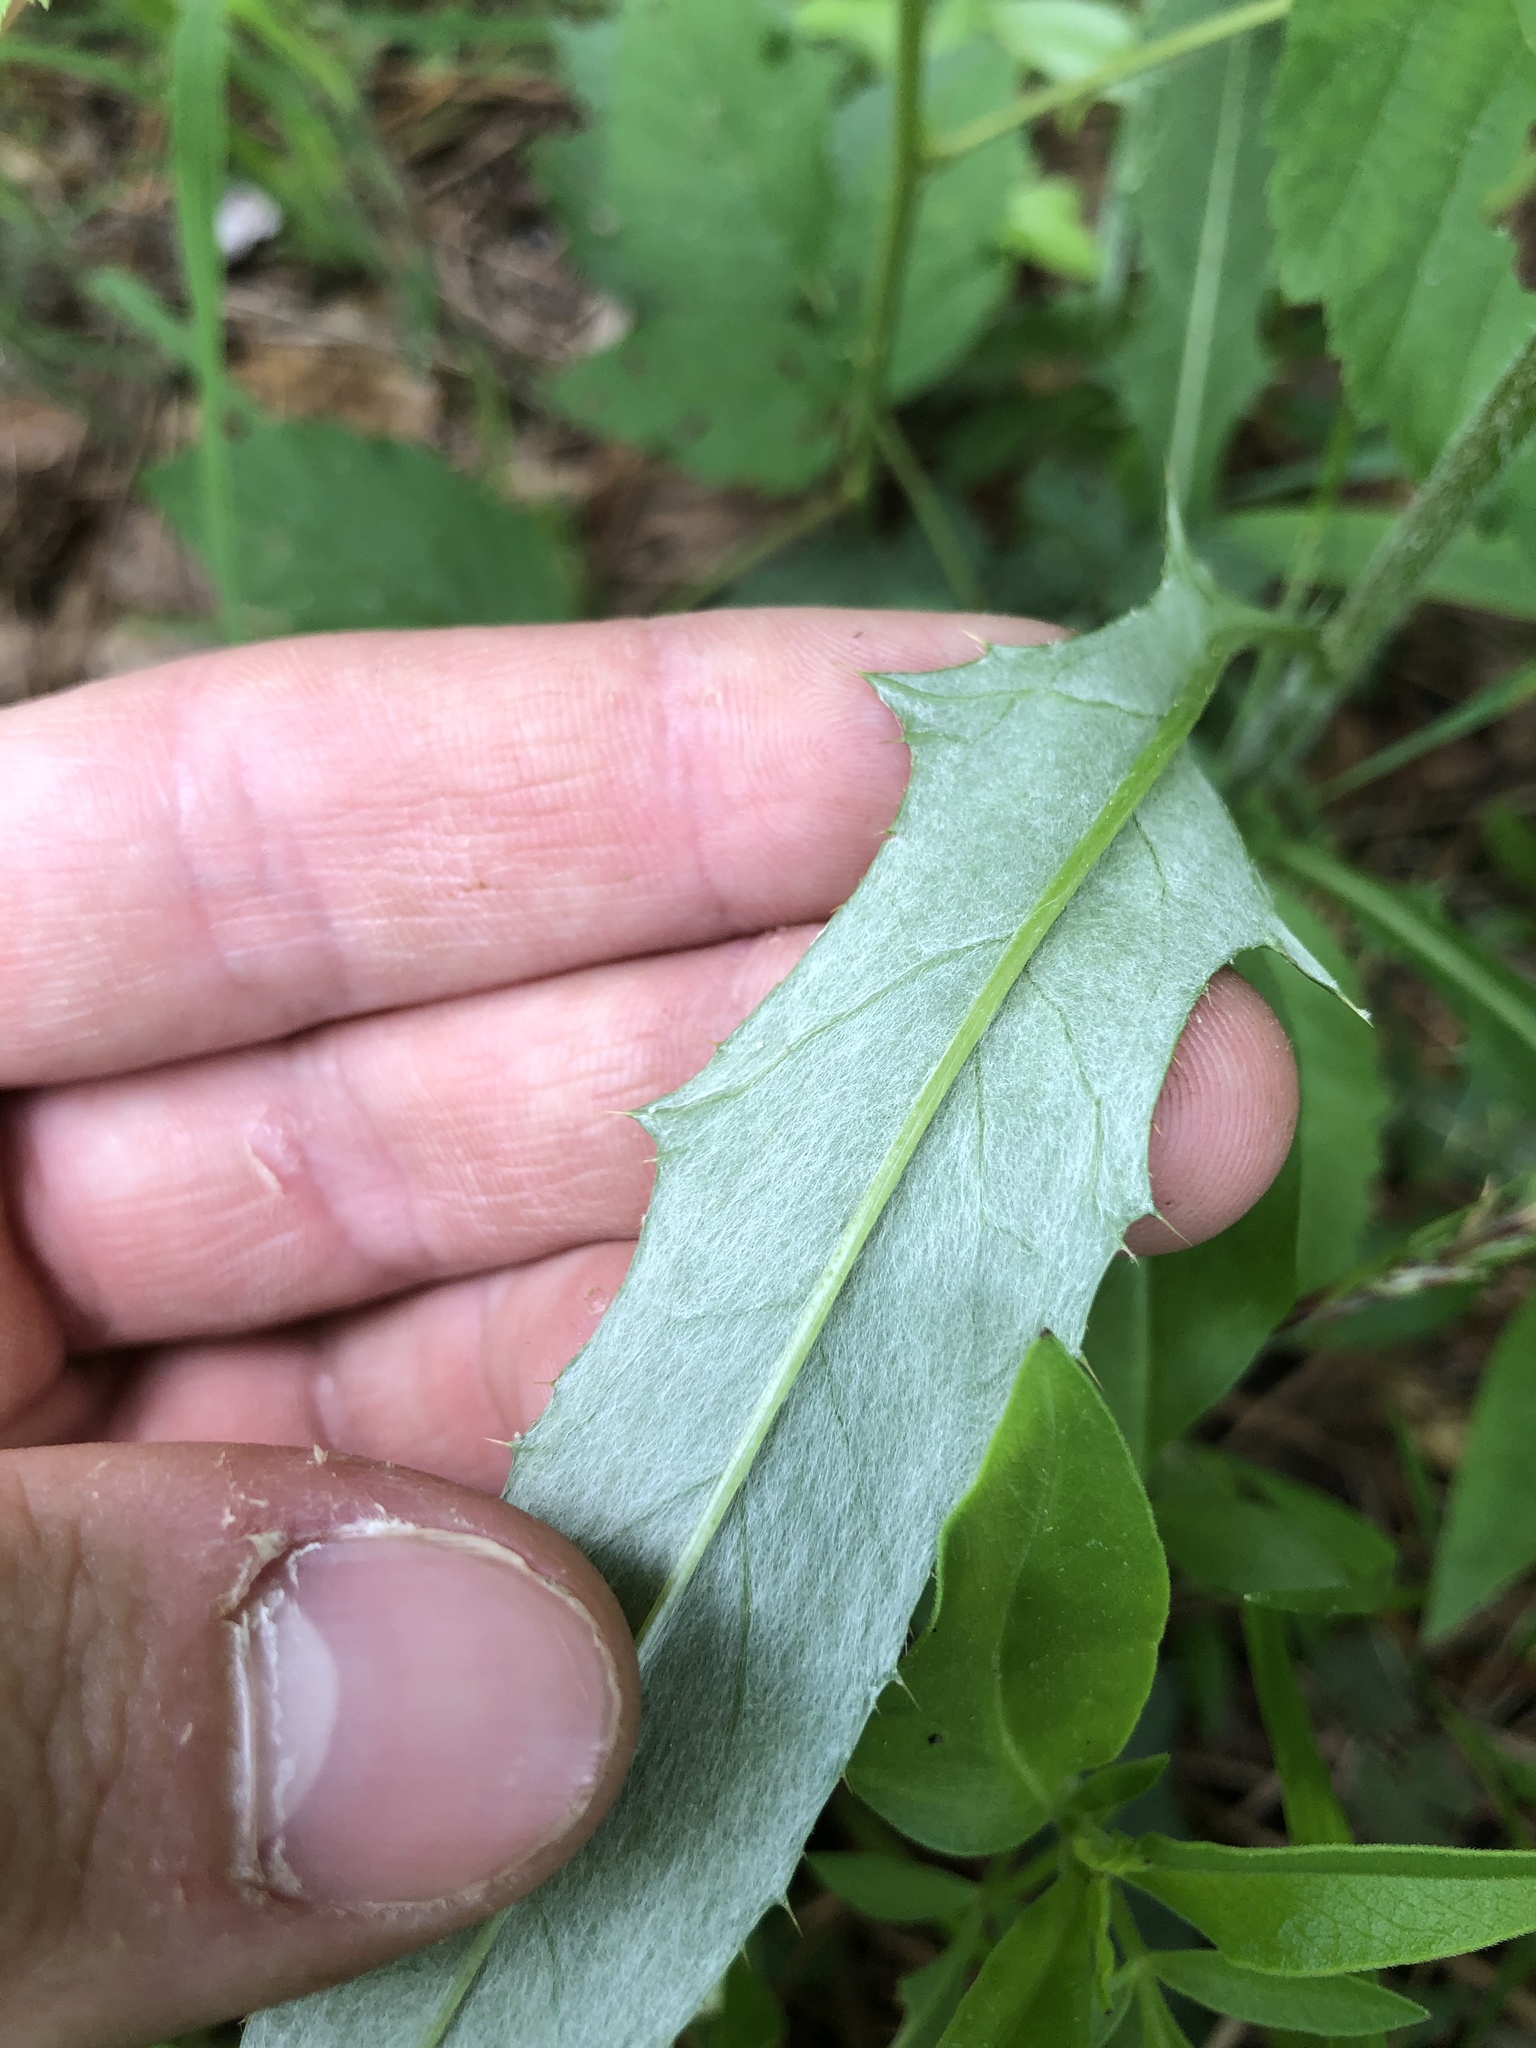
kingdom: Plantae
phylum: Tracheophyta
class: Magnoliopsida
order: Asterales
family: Asteraceae
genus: Cirsium
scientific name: Cirsium carolinianum
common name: Carolina thistle
